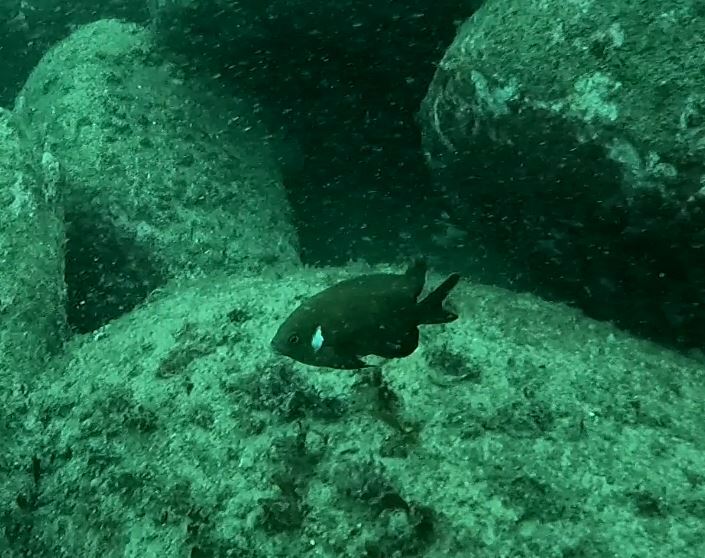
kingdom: Animalia
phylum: Chordata
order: Perciformes
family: Pomacentridae
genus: Parma
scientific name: Parma microlepis
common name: White-ear
